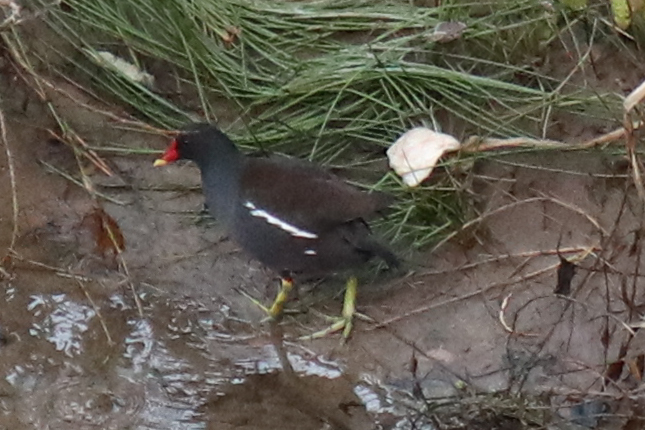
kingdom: Animalia
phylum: Chordata
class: Aves
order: Gruiformes
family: Rallidae
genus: Gallinula
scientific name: Gallinula chloropus
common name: Common moorhen
